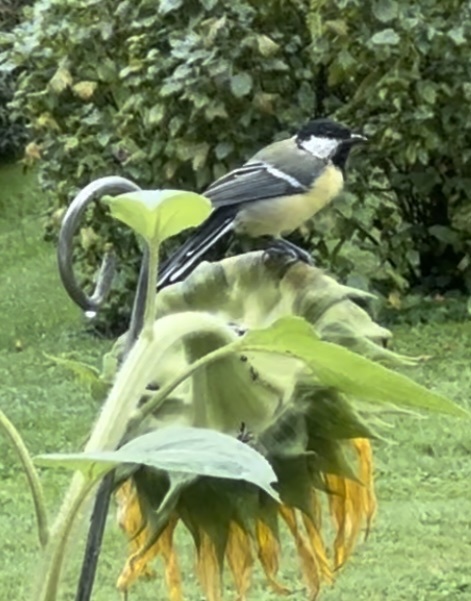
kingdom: Animalia
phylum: Chordata
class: Aves
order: Passeriformes
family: Paridae
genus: Parus
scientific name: Parus major
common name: Great tit
